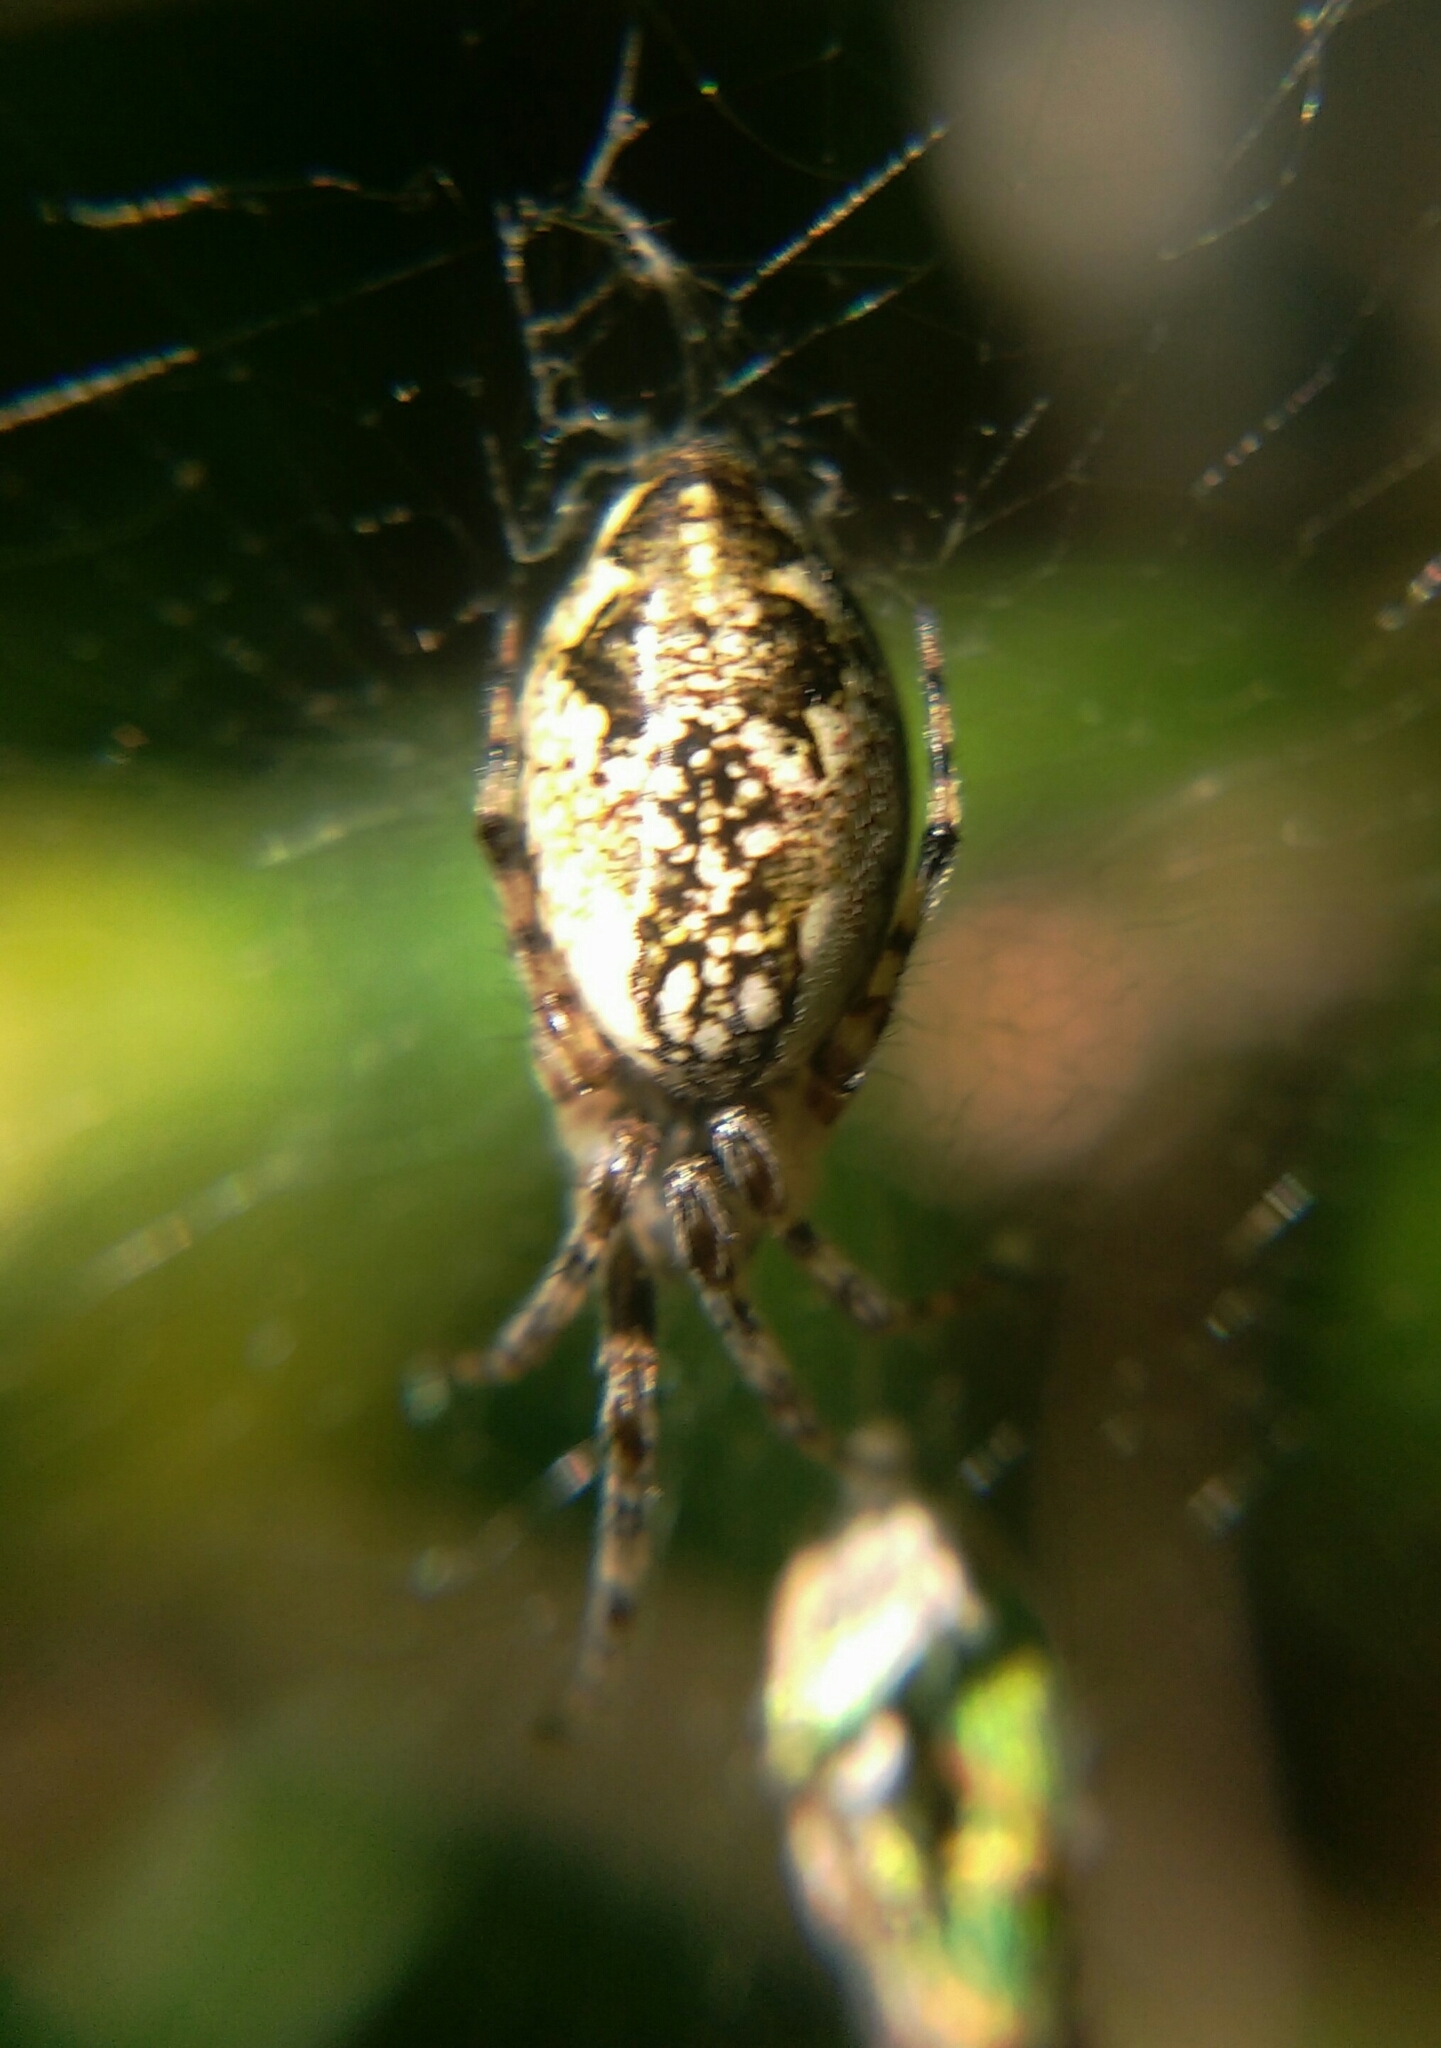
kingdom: Animalia
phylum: Arthropoda
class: Arachnida
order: Araneae
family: Araneidae
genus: Cyclosa
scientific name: Cyclosa conica
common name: Conical trashline orbweaver
